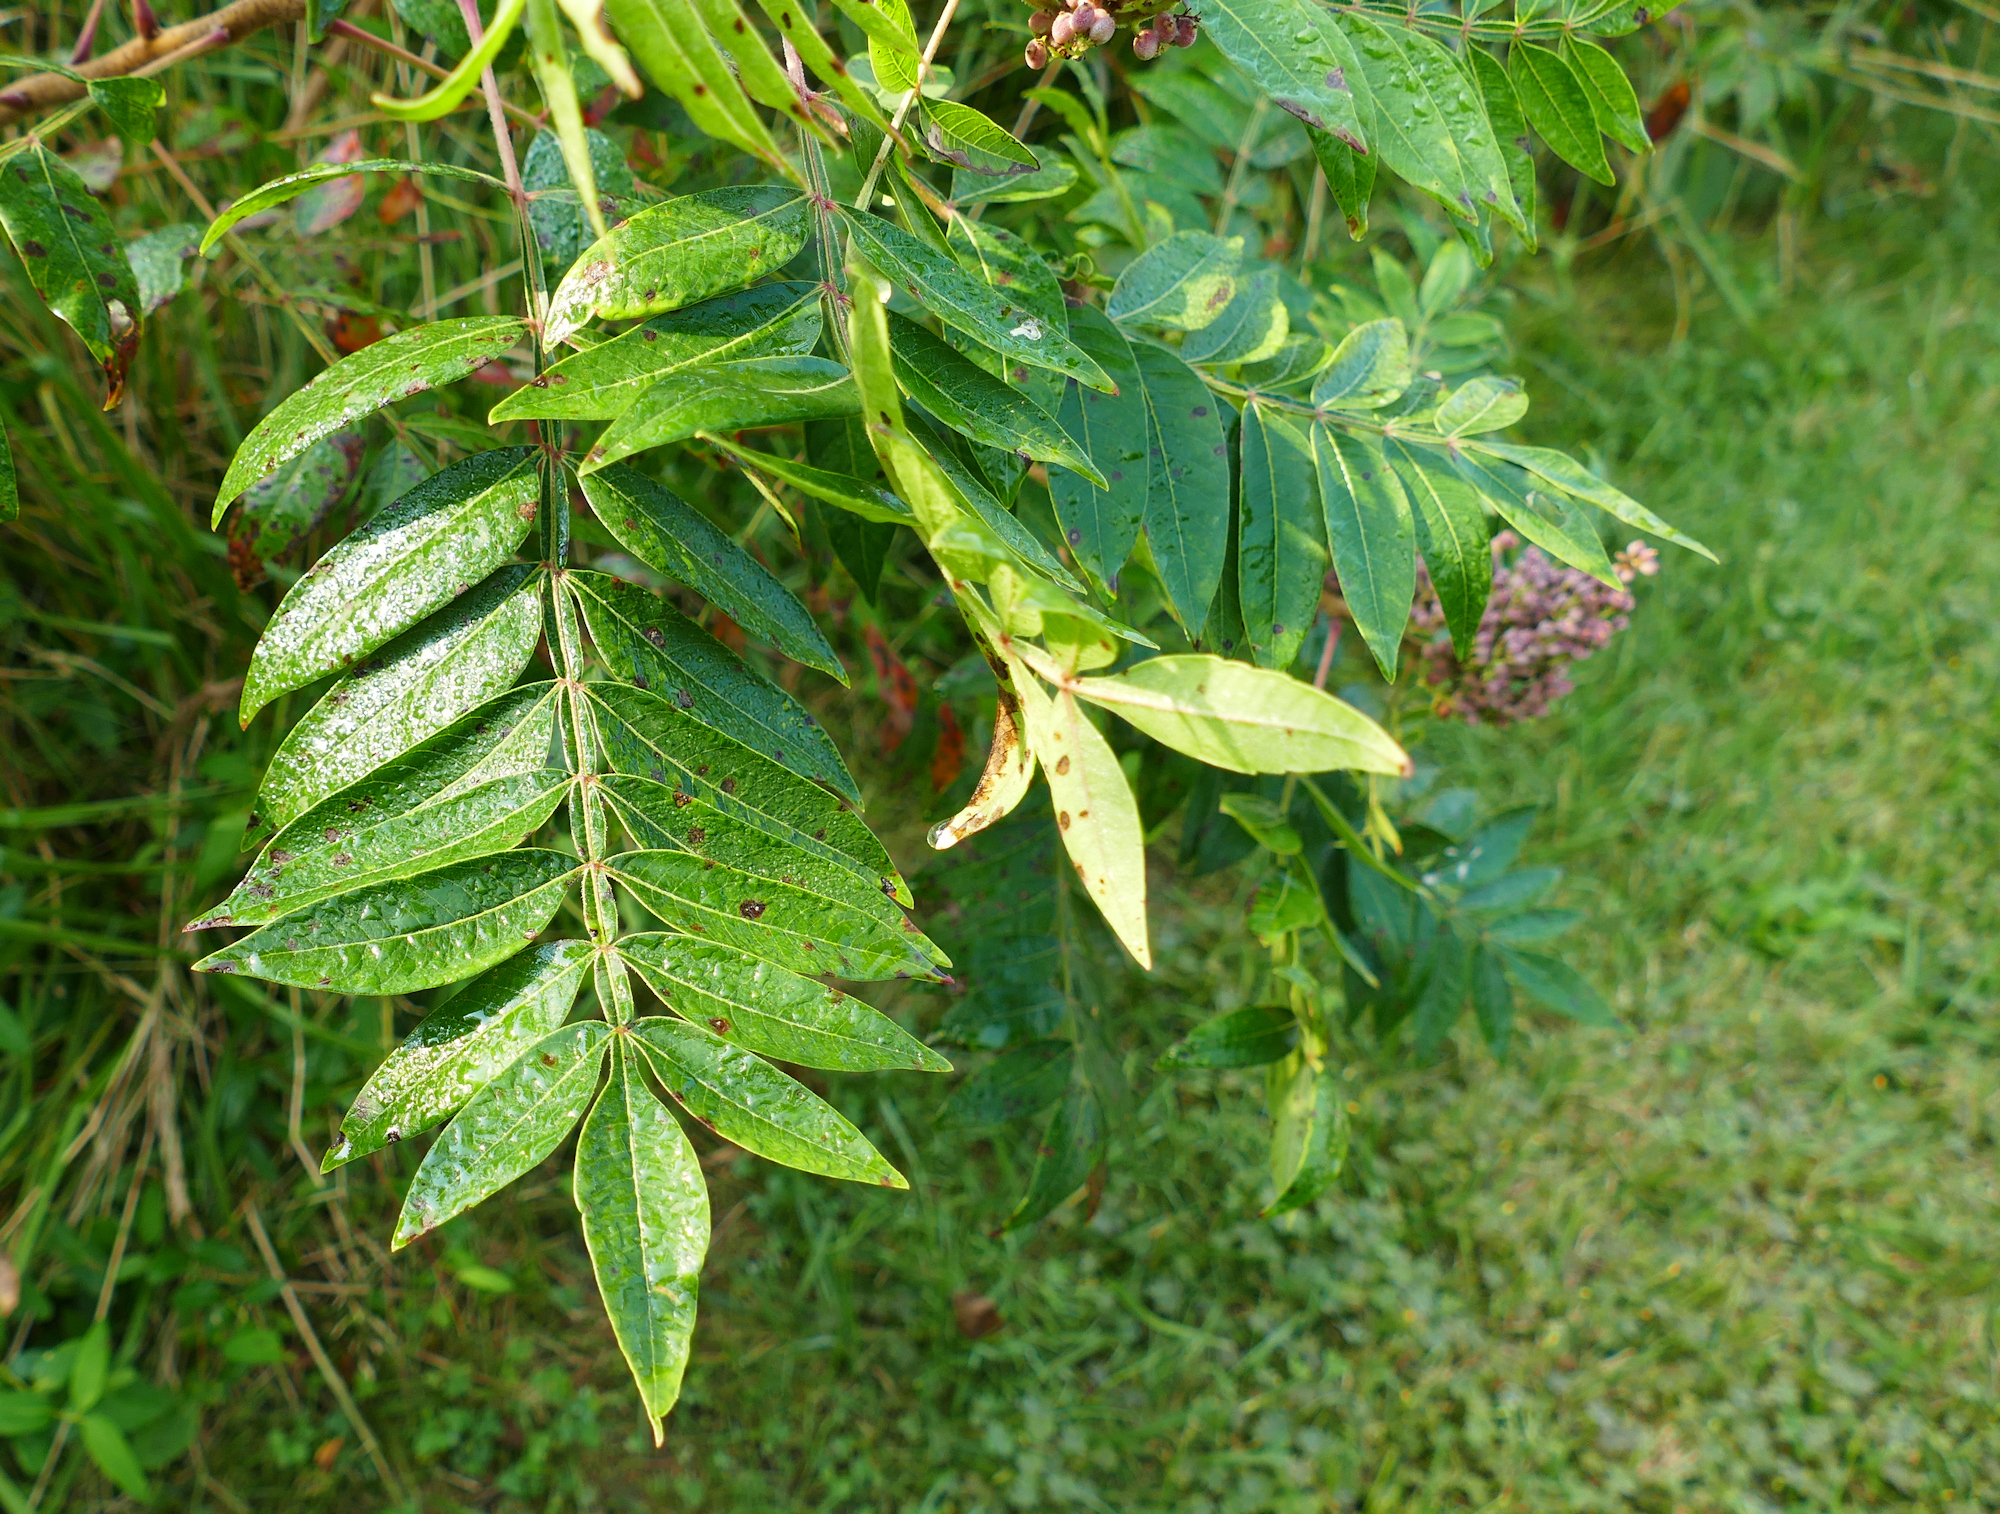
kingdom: Plantae
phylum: Tracheophyta
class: Magnoliopsida
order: Sapindales
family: Anacardiaceae
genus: Rhus
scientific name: Rhus copallina
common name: Shining sumac
